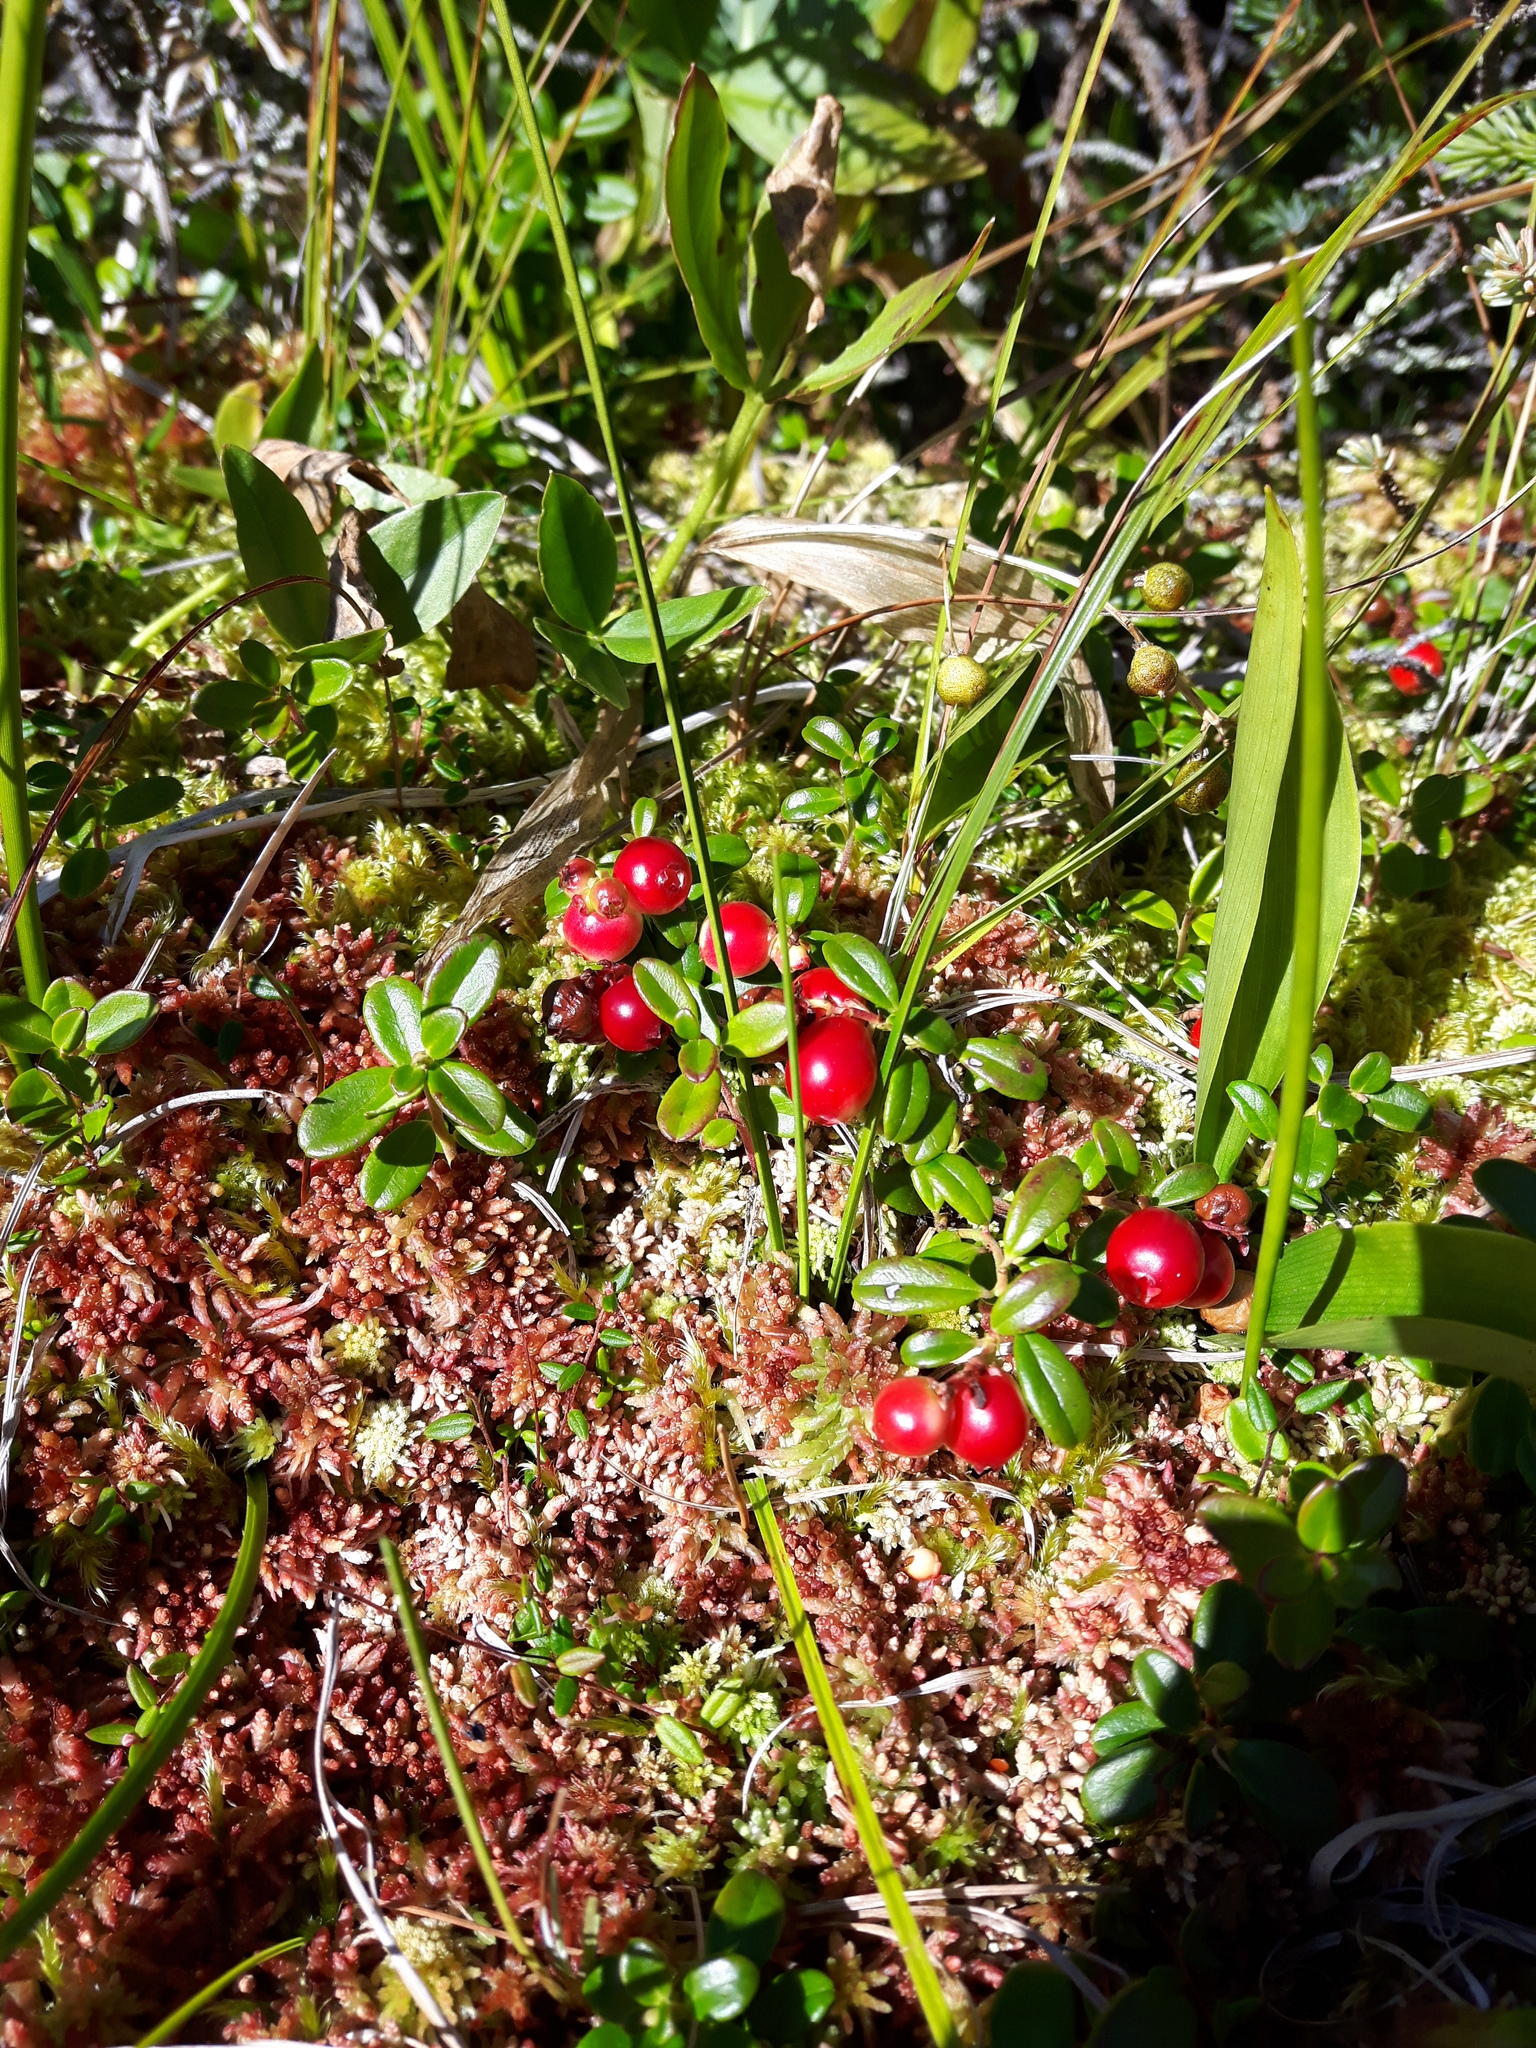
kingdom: Plantae
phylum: Tracheophyta
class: Magnoliopsida
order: Ericales
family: Ericaceae
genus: Vaccinium
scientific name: Vaccinium vitis-idaea
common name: Cowberry
